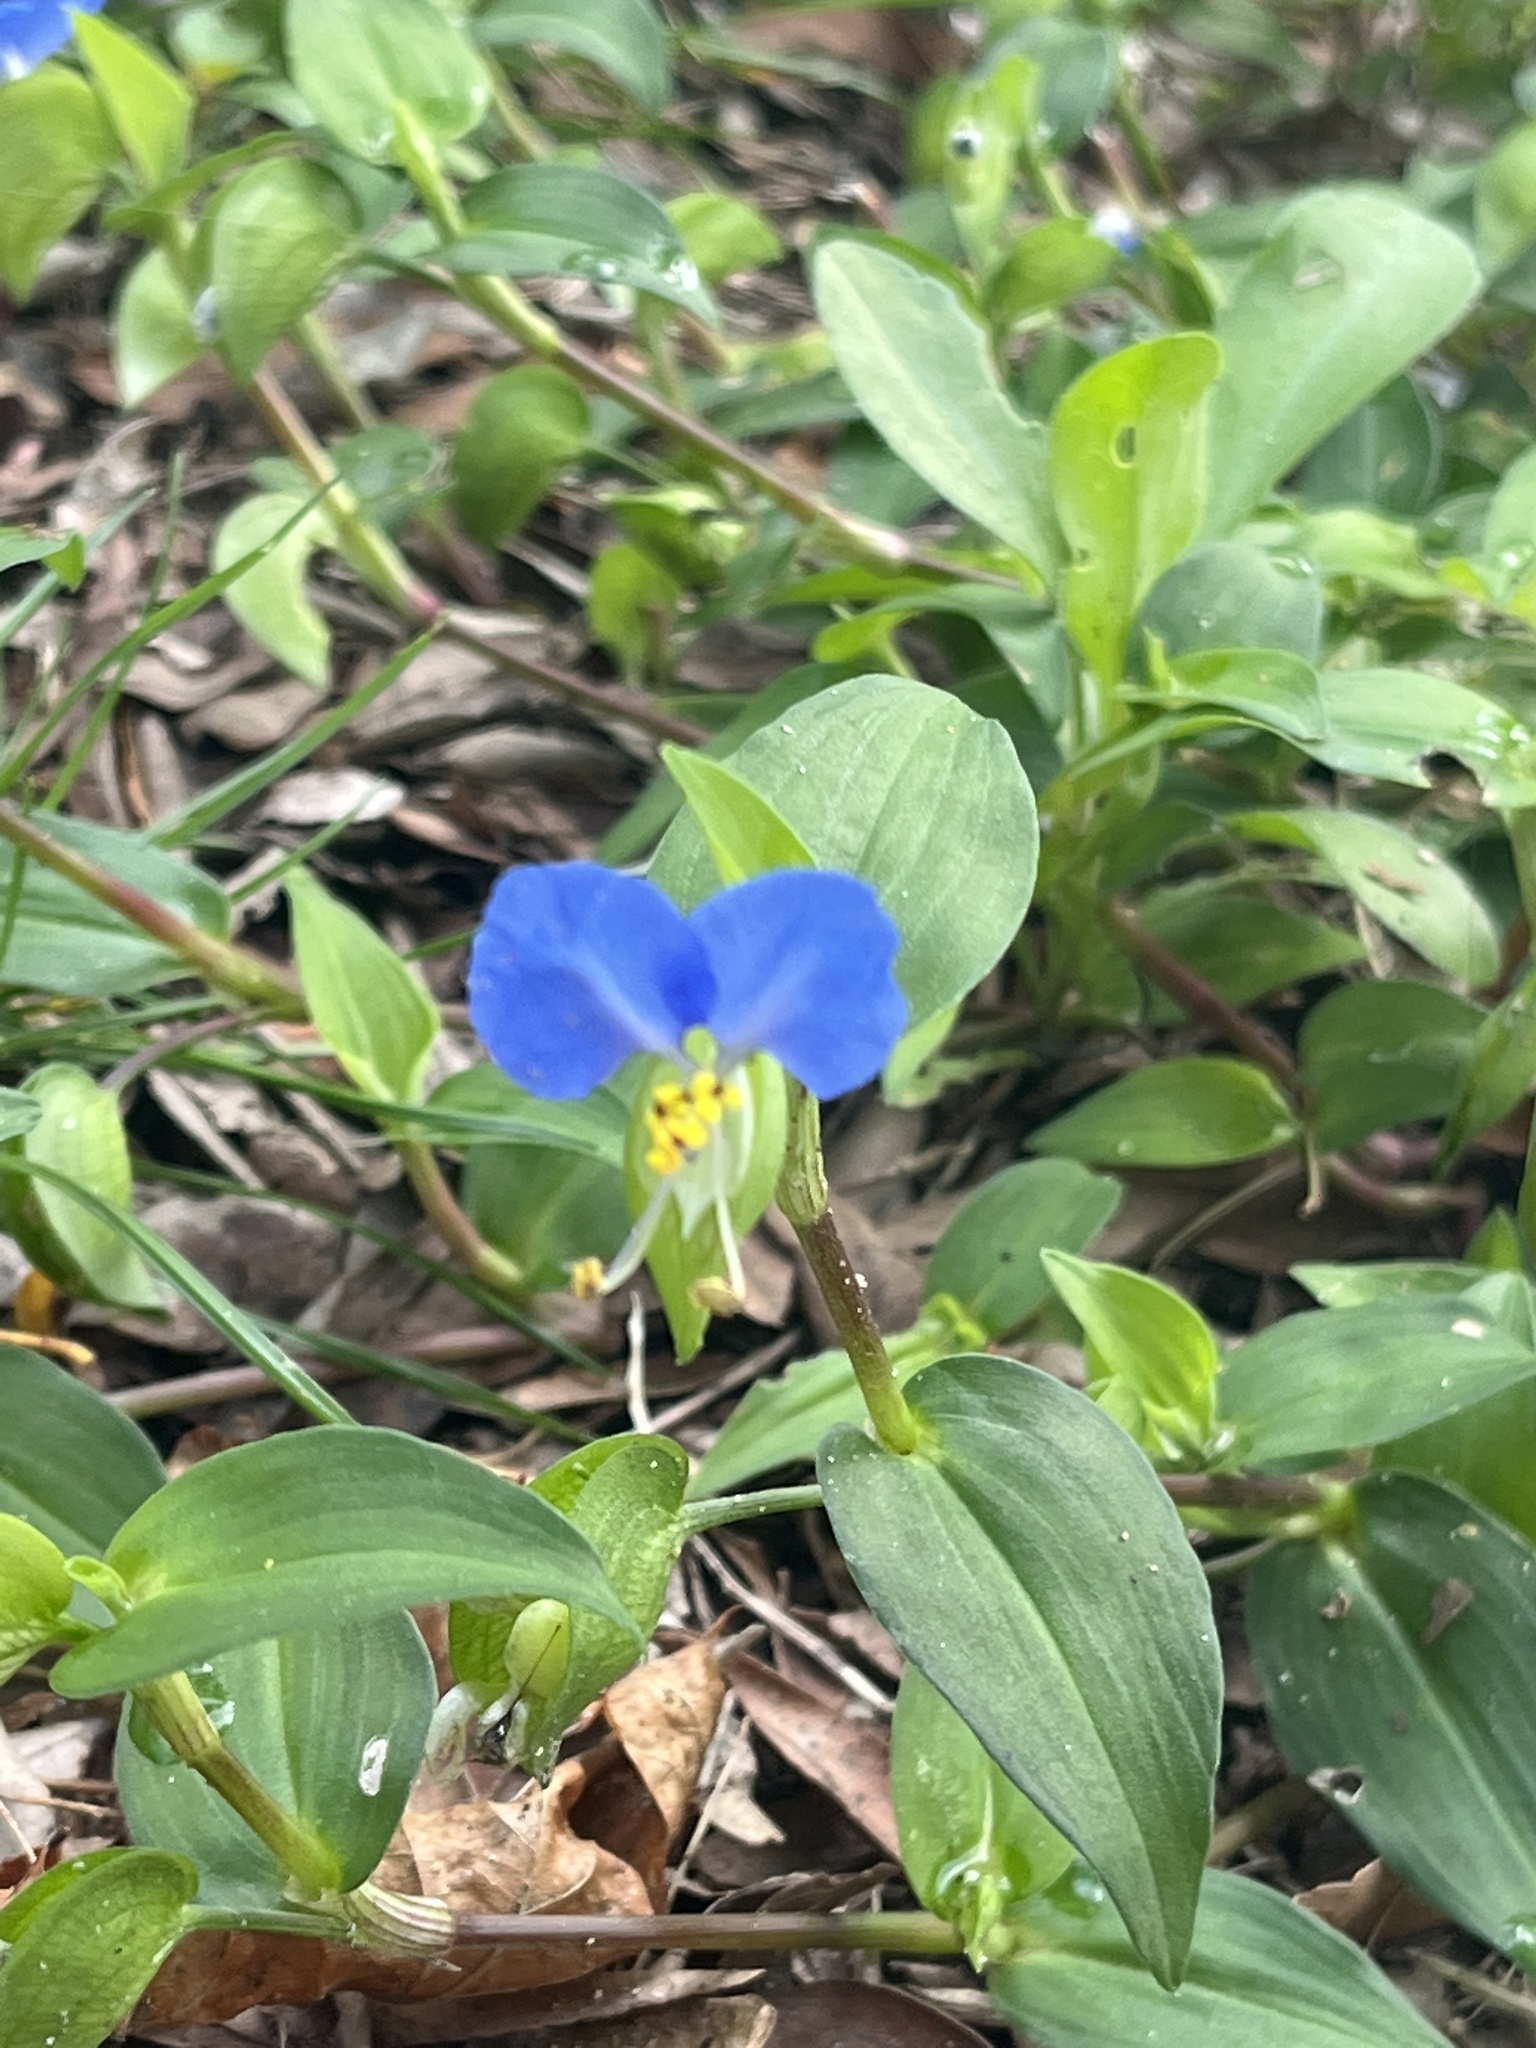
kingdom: Plantae
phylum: Tracheophyta
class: Liliopsida
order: Commelinales
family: Commelinaceae
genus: Commelina
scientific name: Commelina communis
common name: Asiatic dayflower
